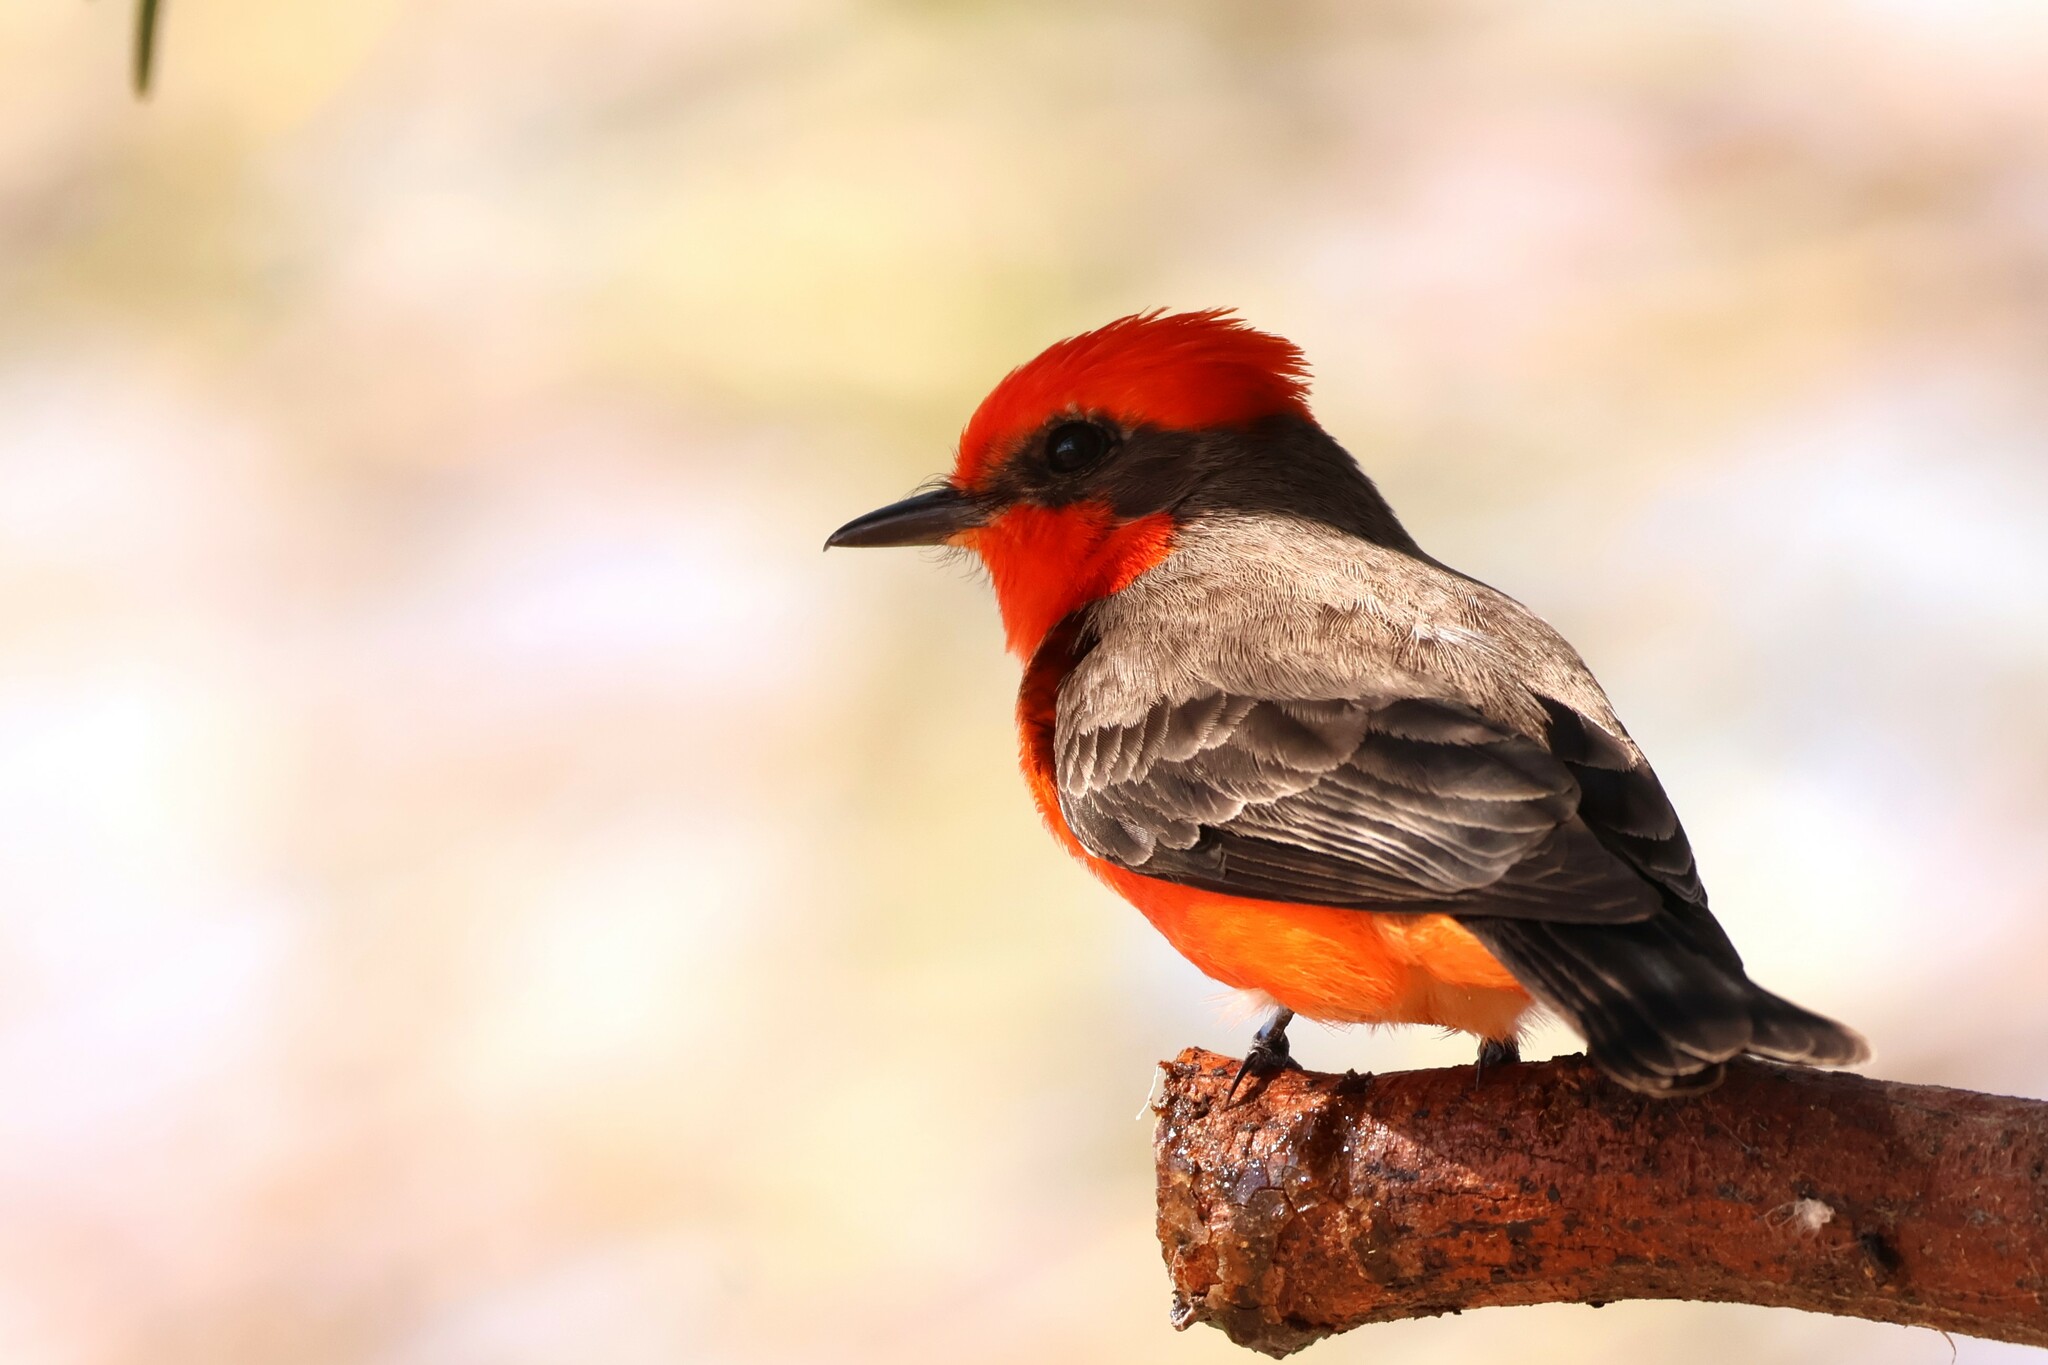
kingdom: Animalia
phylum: Chordata
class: Aves
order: Passeriformes
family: Tyrannidae
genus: Pyrocephalus
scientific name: Pyrocephalus rubinus
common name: Vermilion flycatcher
